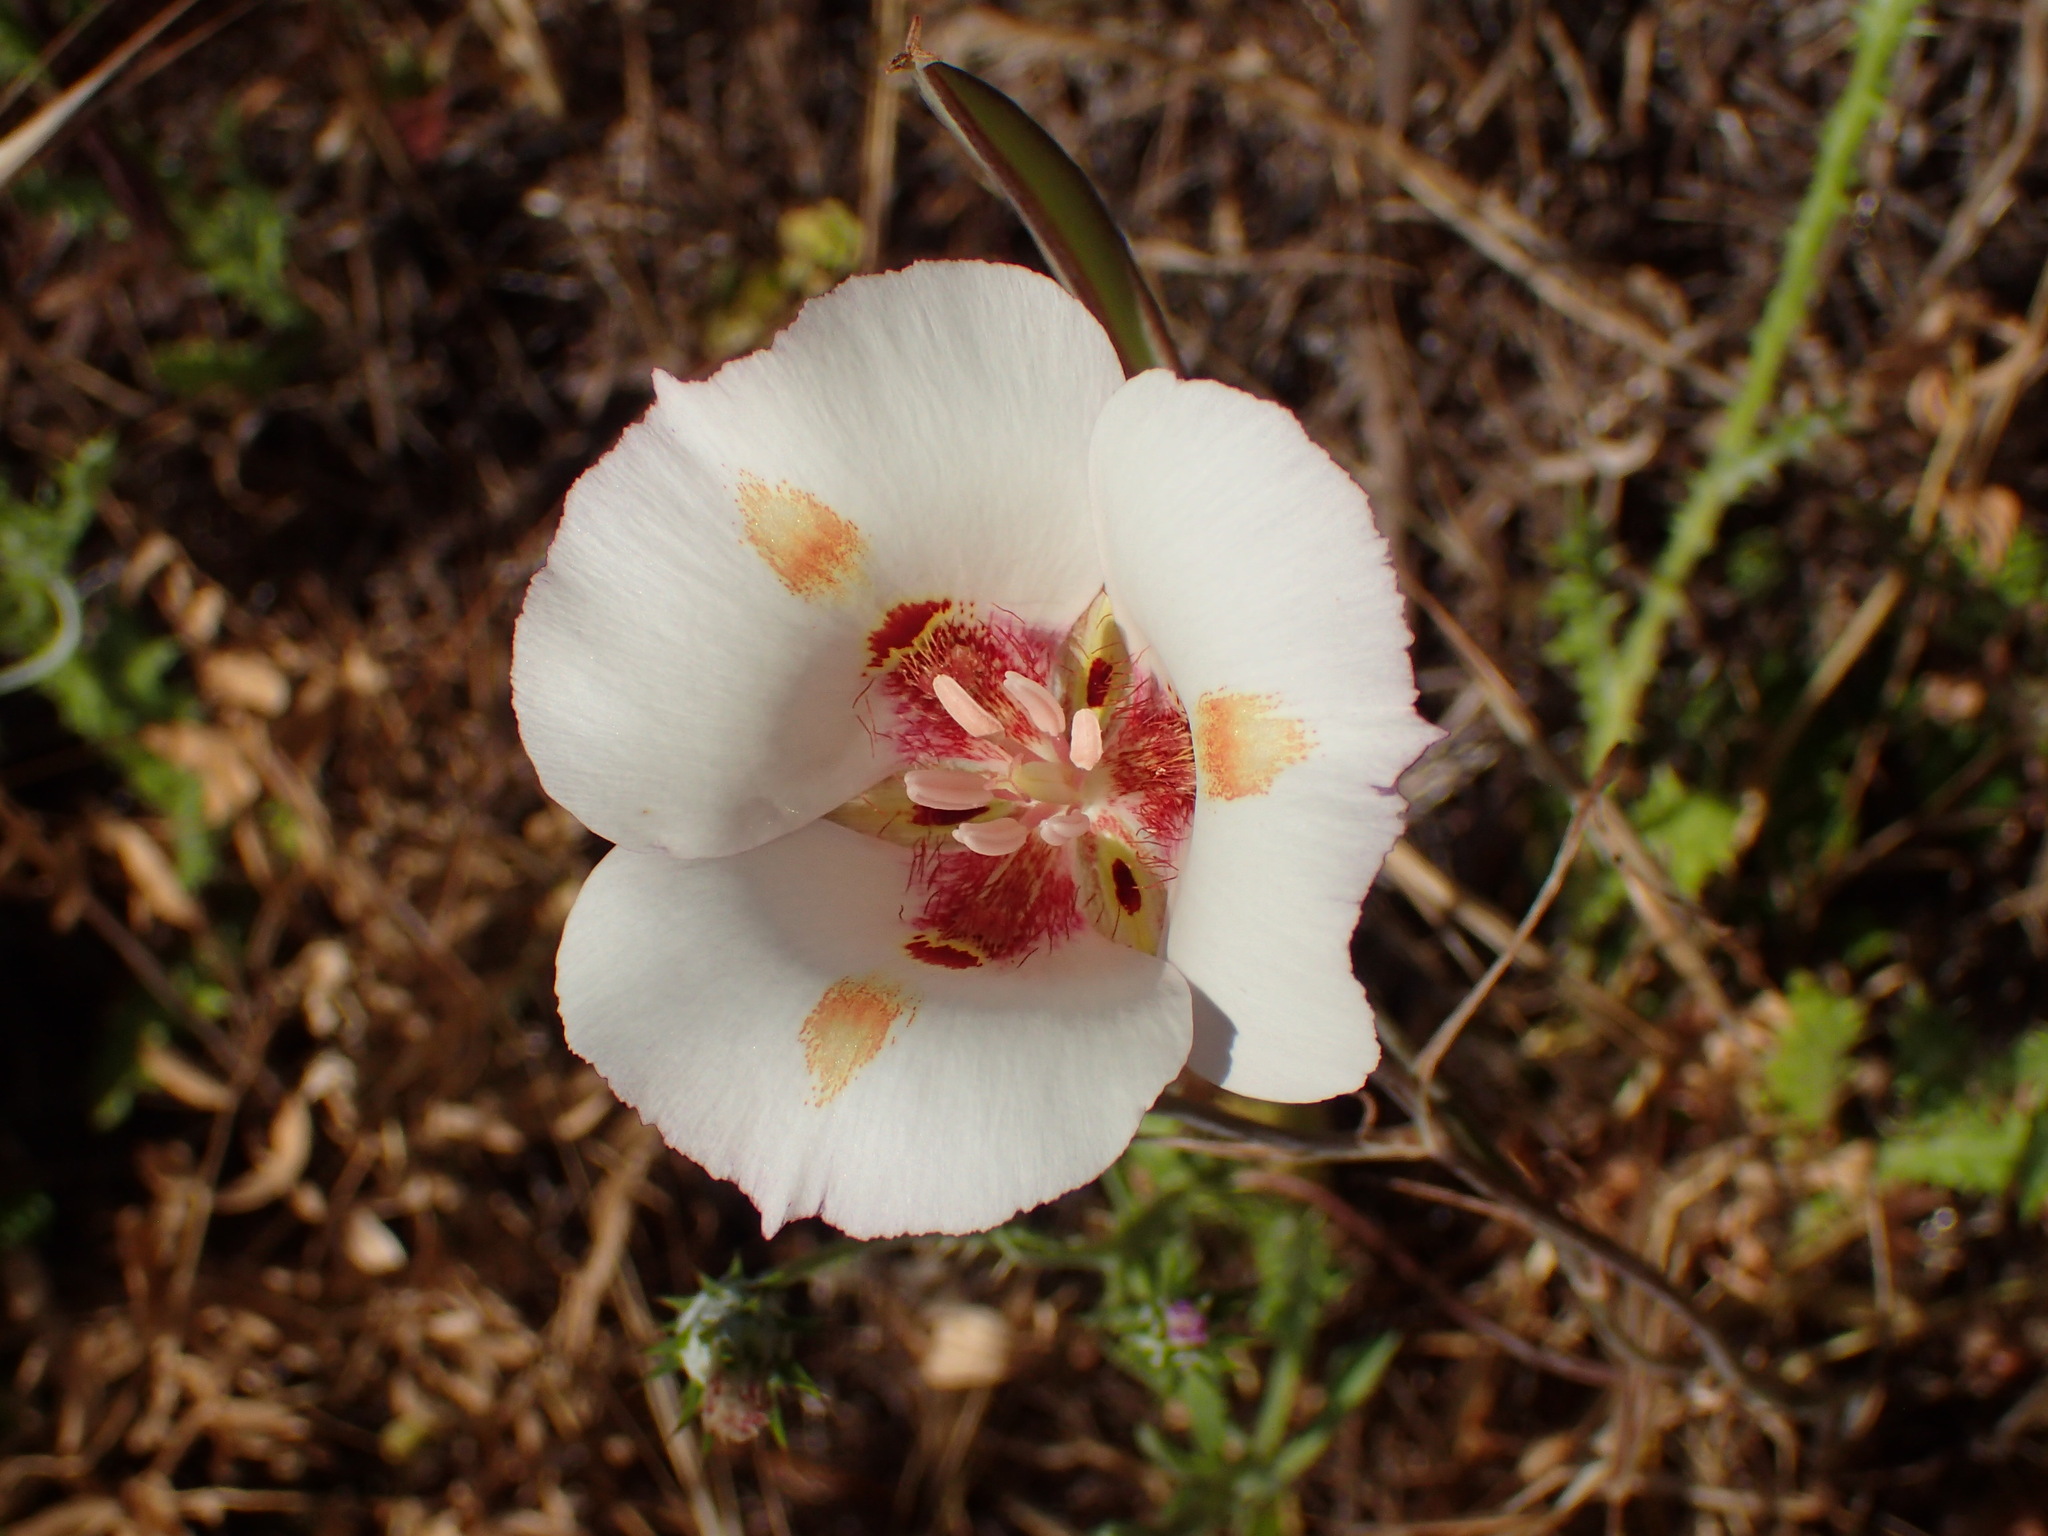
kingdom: Plantae
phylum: Tracheophyta
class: Liliopsida
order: Liliales
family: Liliaceae
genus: Calochortus
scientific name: Calochortus venustus
